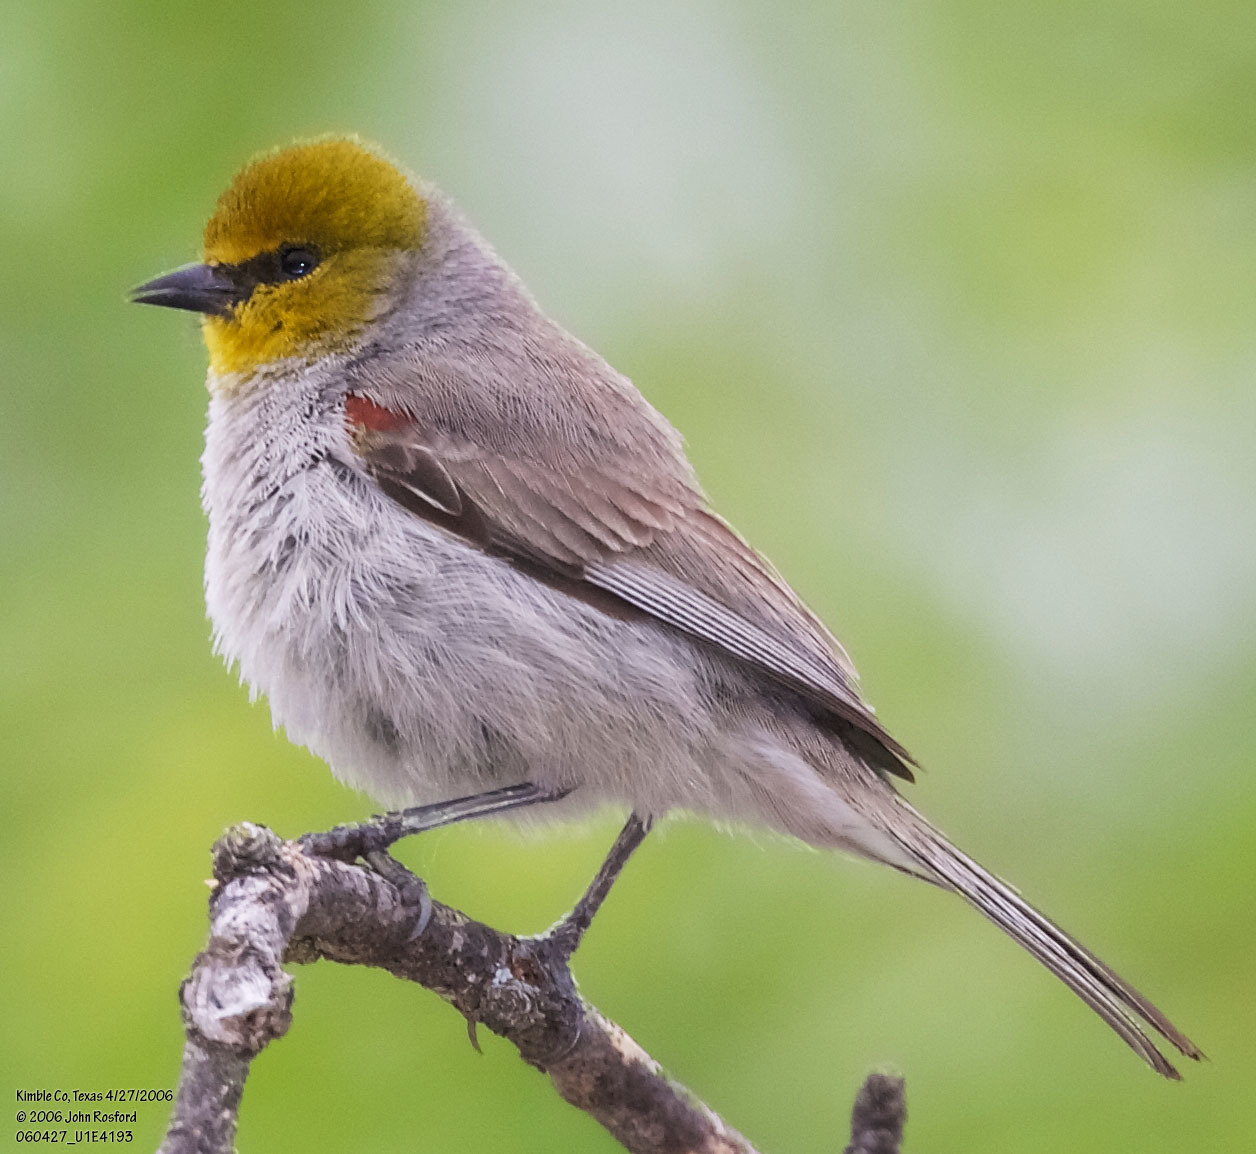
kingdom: Animalia
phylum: Chordata
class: Aves
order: Passeriformes
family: Remizidae
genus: Auriparus
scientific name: Auriparus flaviceps
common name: Verdin
